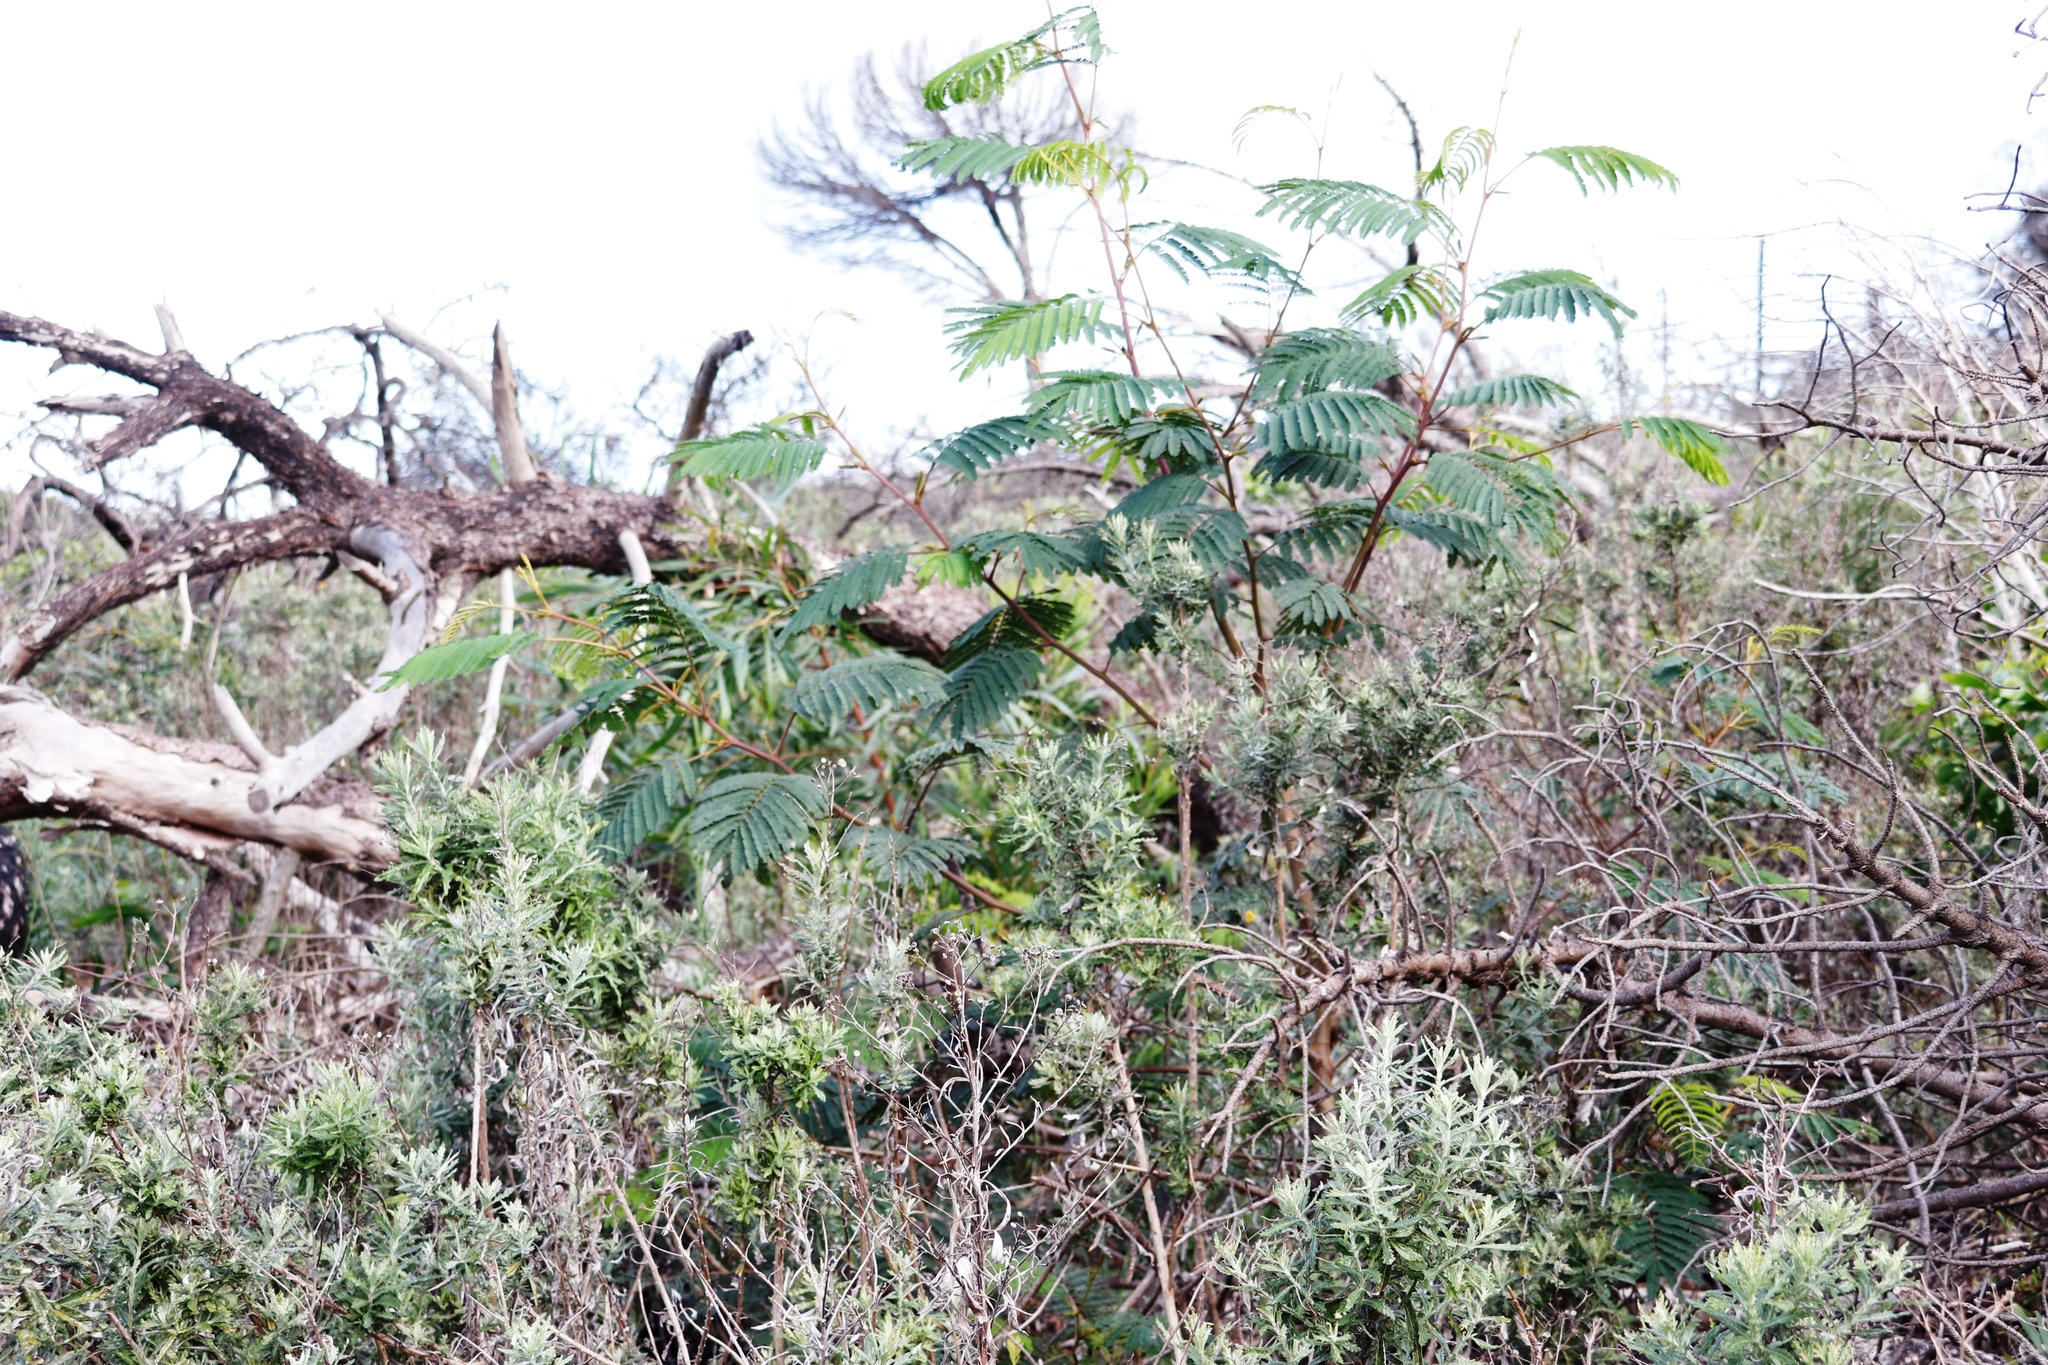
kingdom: Plantae
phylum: Tracheophyta
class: Magnoliopsida
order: Fabales
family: Fabaceae
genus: Paraserianthes
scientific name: Paraserianthes lophantha
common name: Plume albizia
